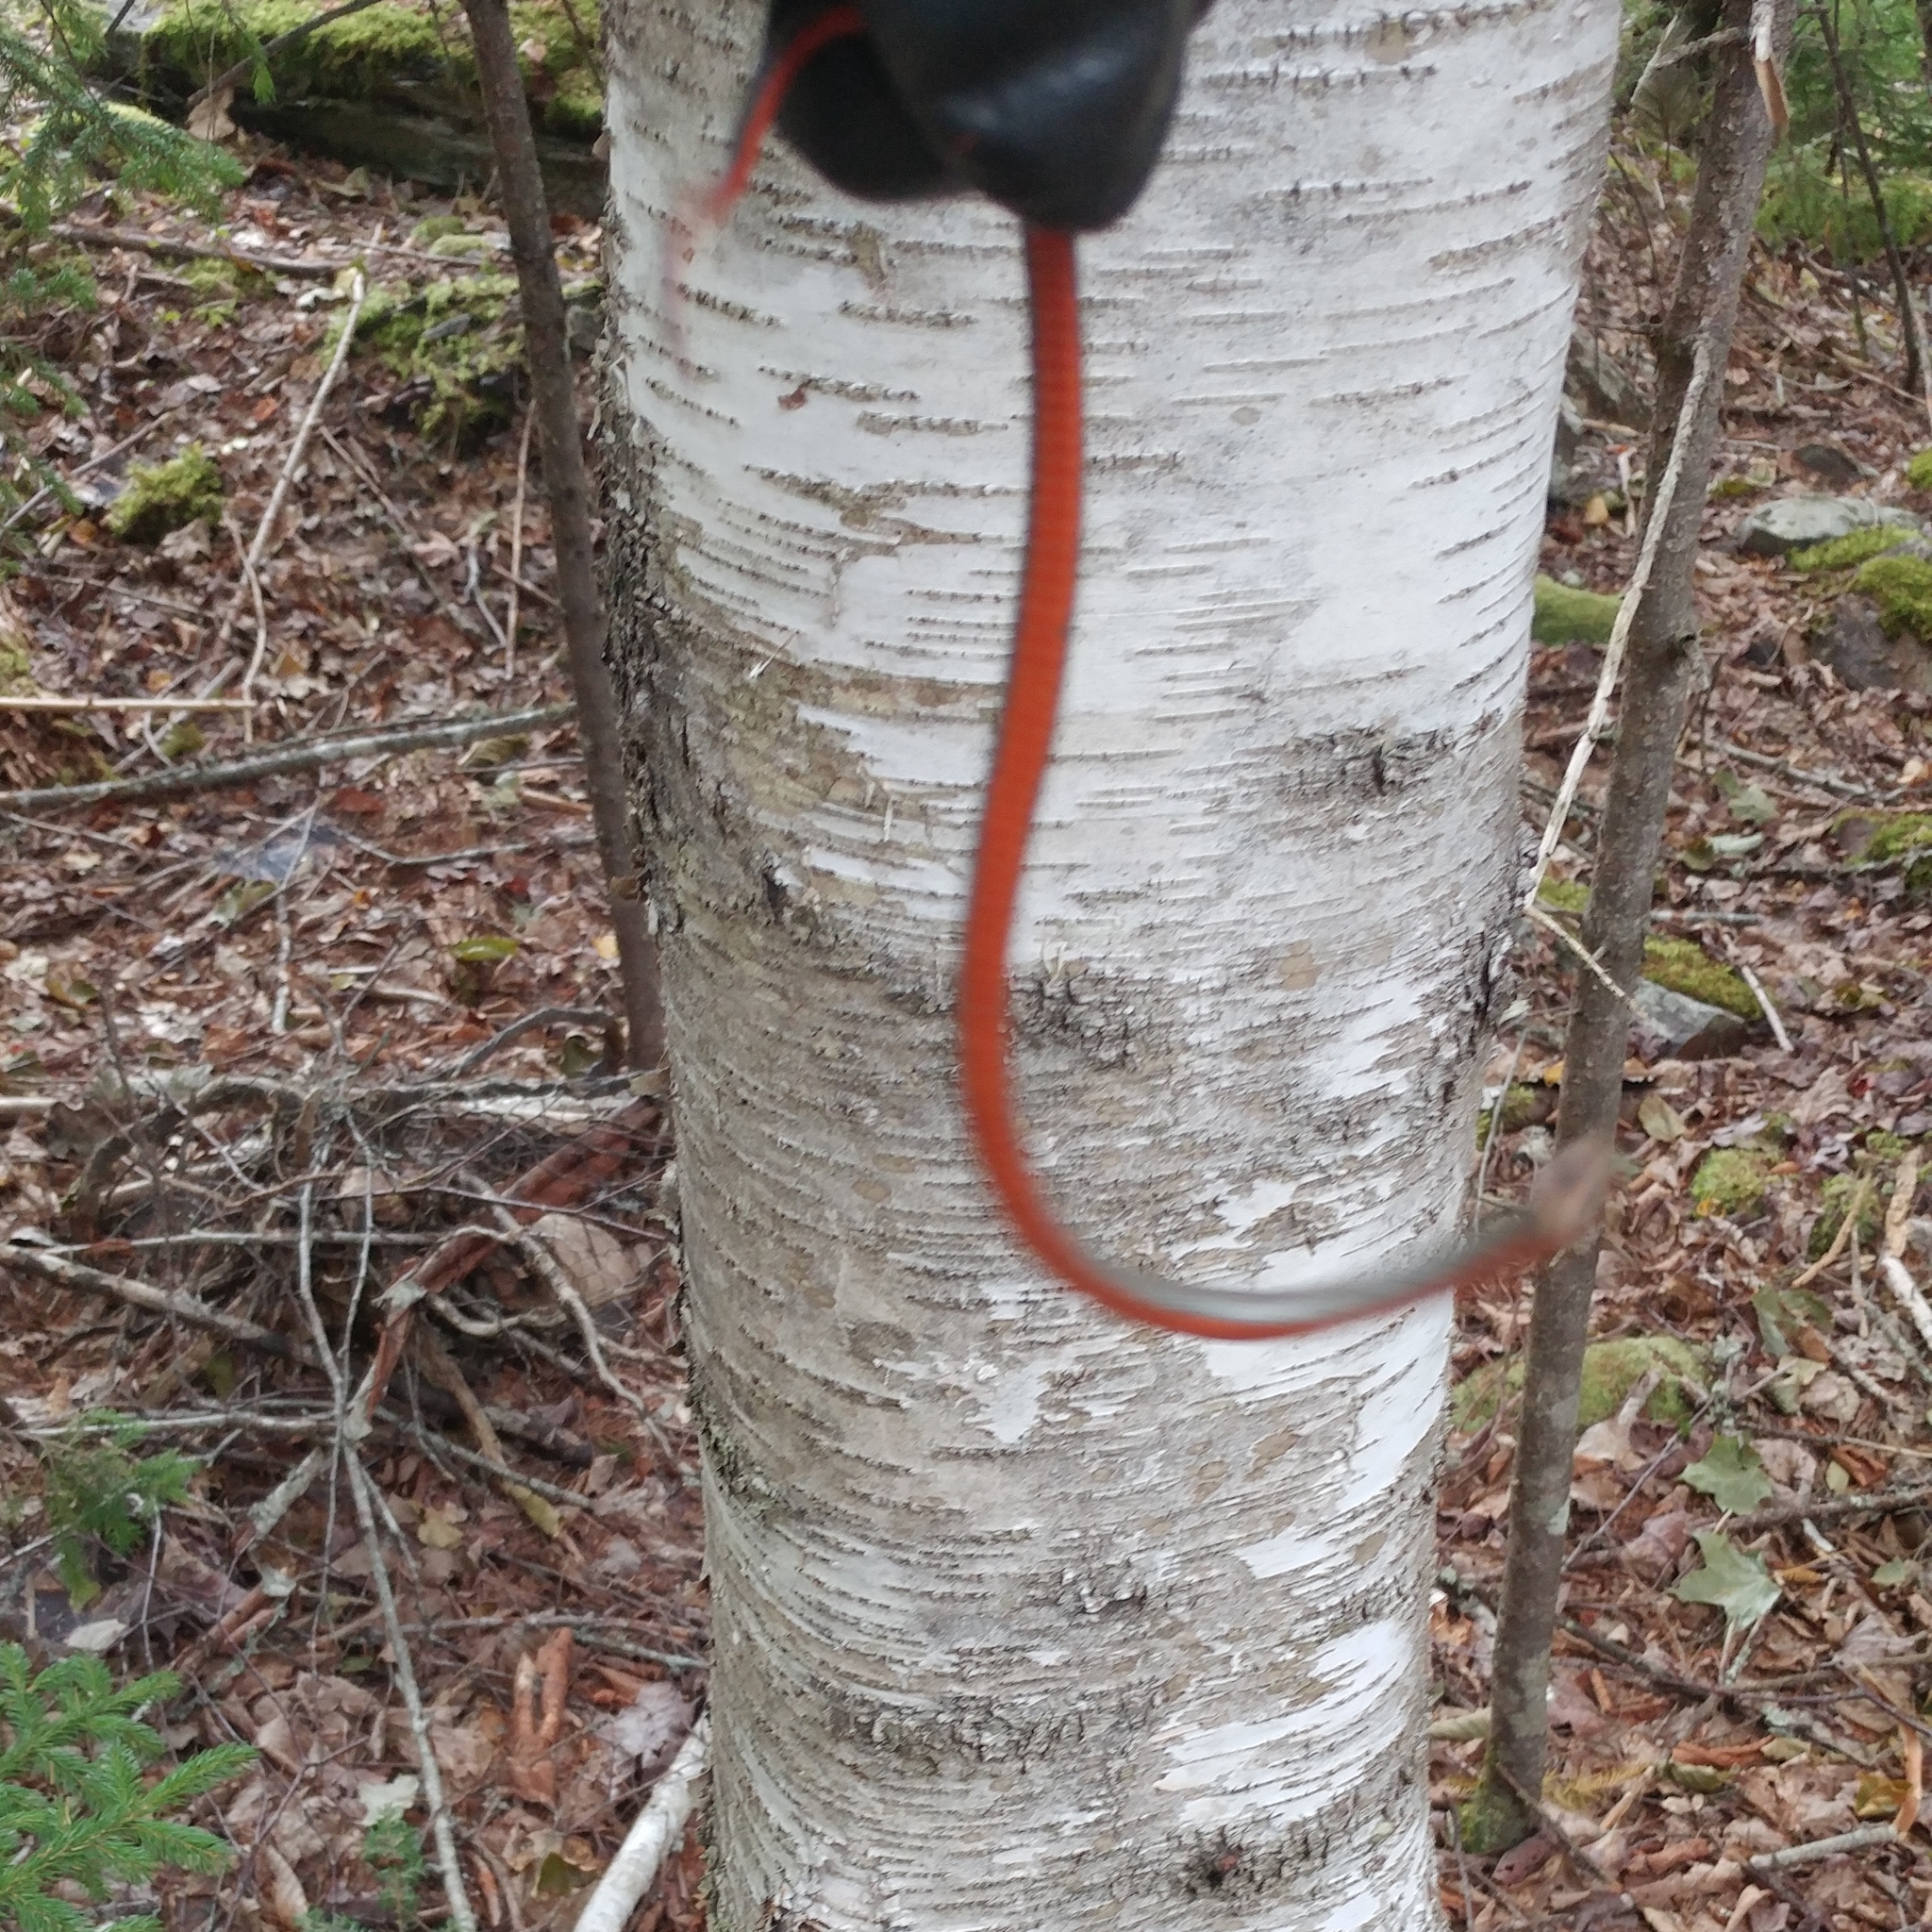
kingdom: Animalia
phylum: Chordata
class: Squamata
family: Colubridae
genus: Storeria
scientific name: Storeria occipitomaculata
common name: Redbelly snake
